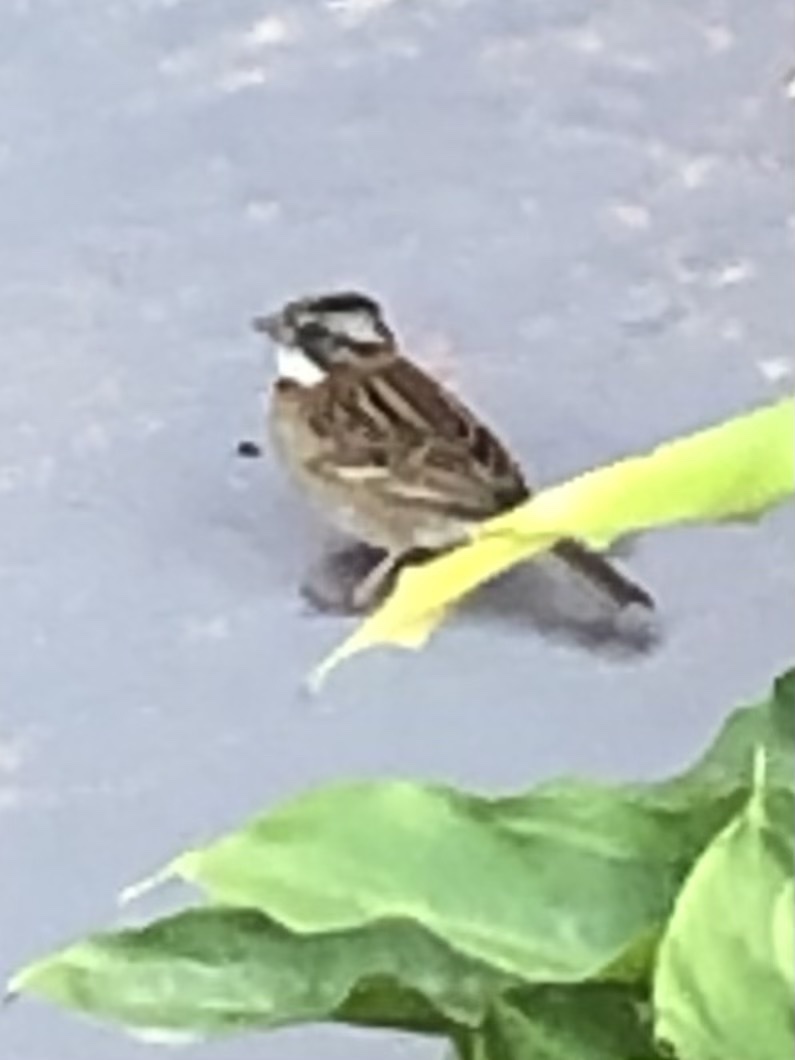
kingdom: Animalia
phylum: Chordata
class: Aves
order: Passeriformes
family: Passerellidae
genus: Zonotrichia
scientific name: Zonotrichia capensis
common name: Rufous-collared sparrow
